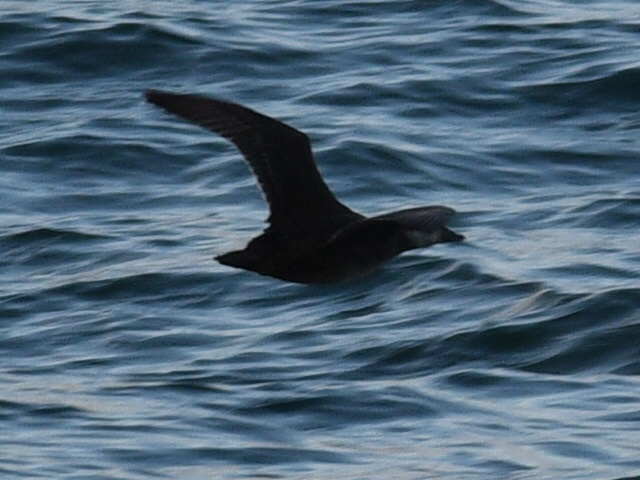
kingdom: Animalia
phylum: Chordata
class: Aves
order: Anseriformes
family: Anatidae
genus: Melanitta
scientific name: Melanitta perspicillata
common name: Surf scoter
